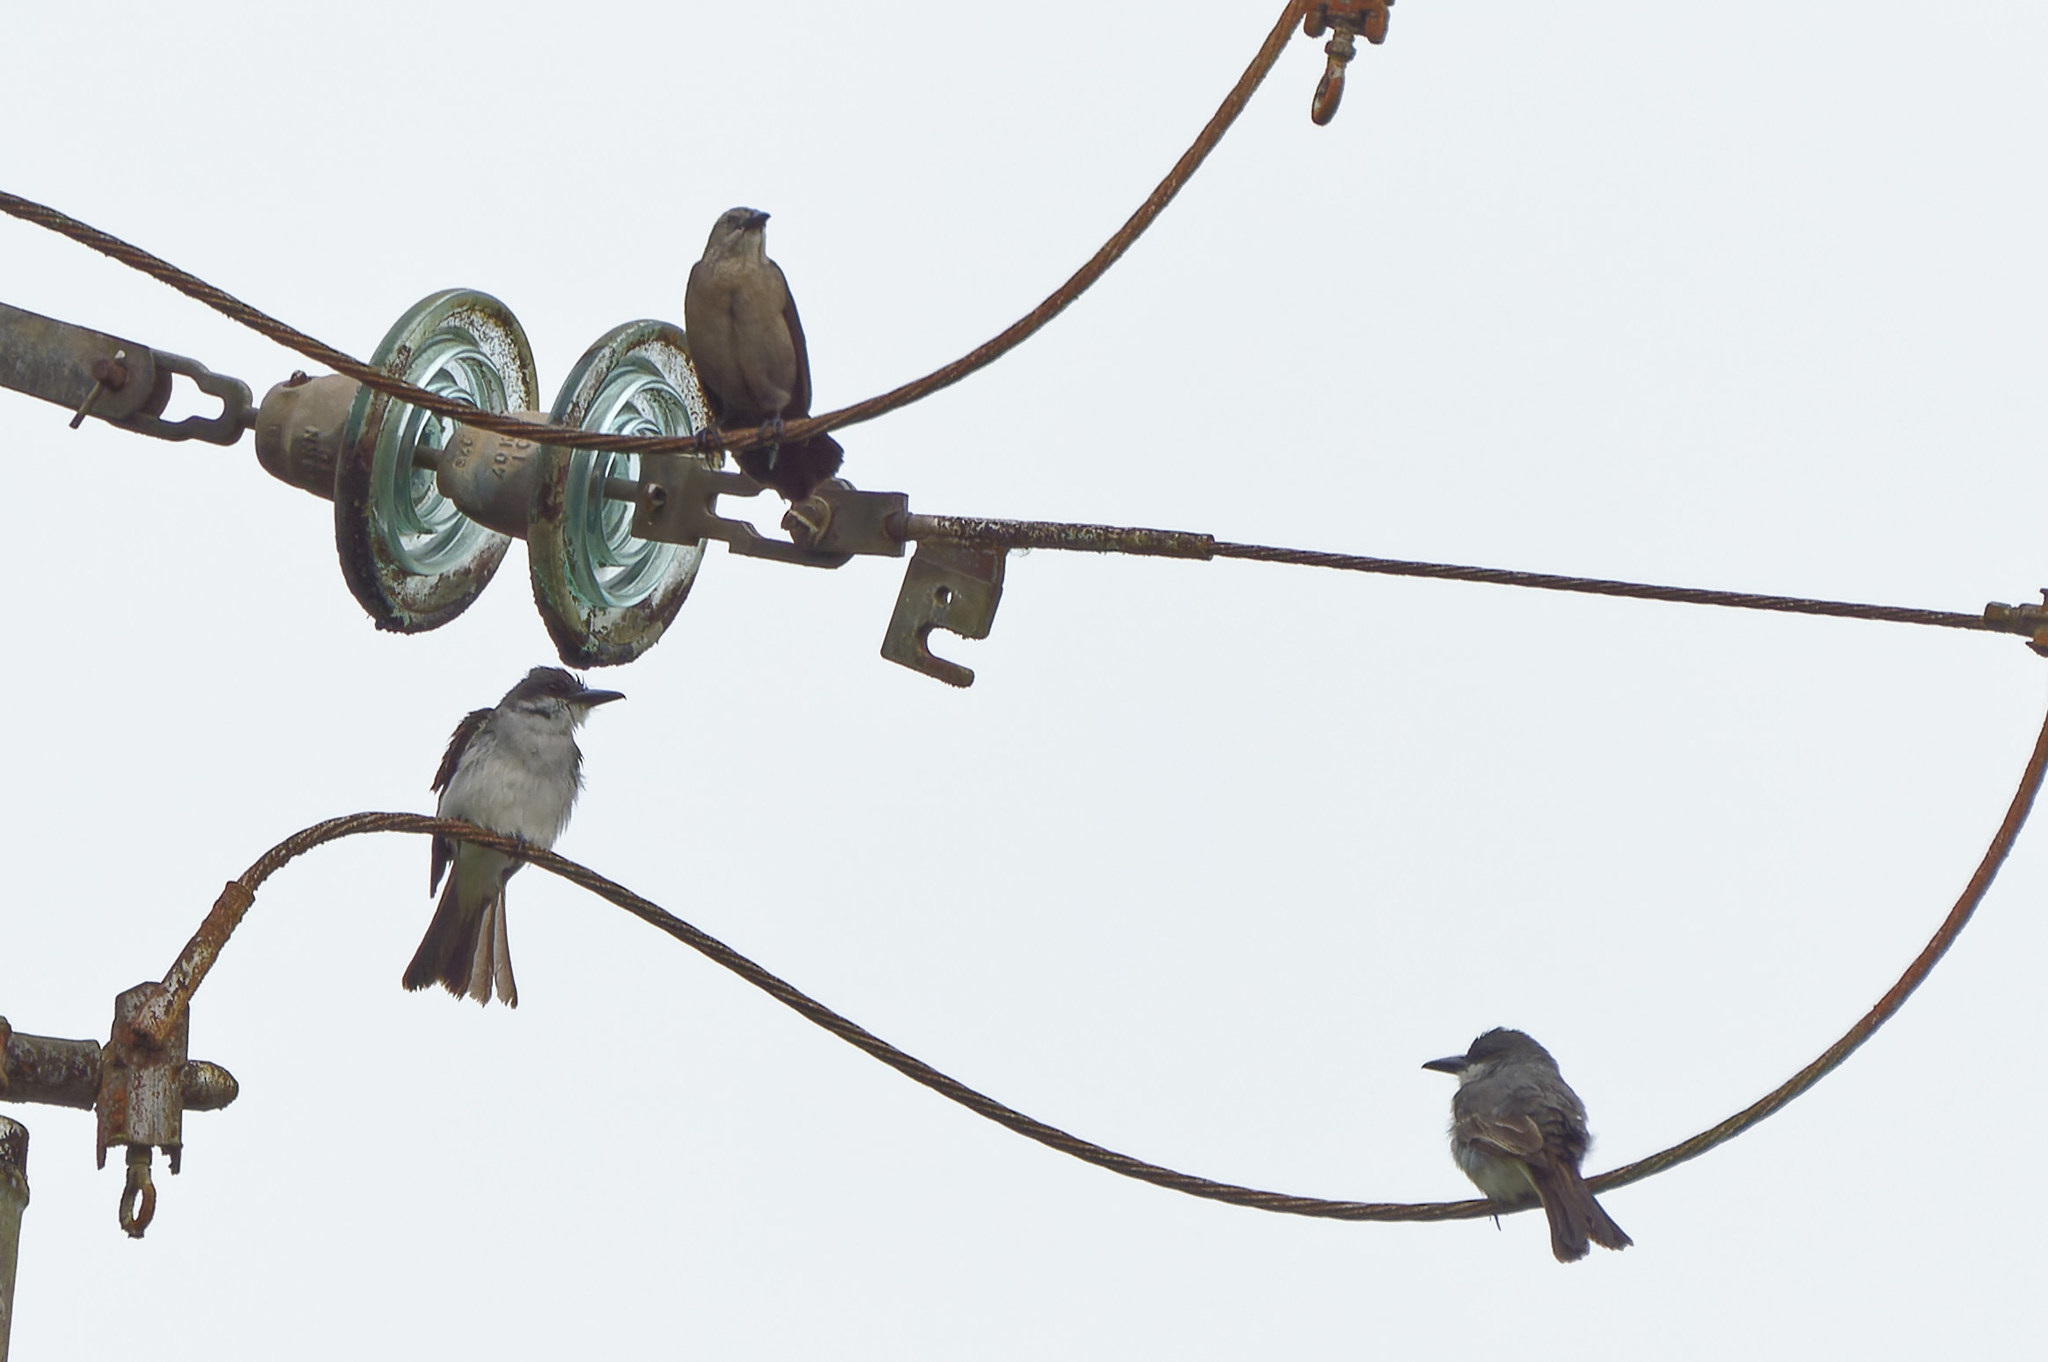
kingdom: Animalia
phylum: Chordata
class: Aves
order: Passeriformes
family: Tyrannidae
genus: Tyrannus
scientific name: Tyrannus dominicensis
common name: Gray kingbird
